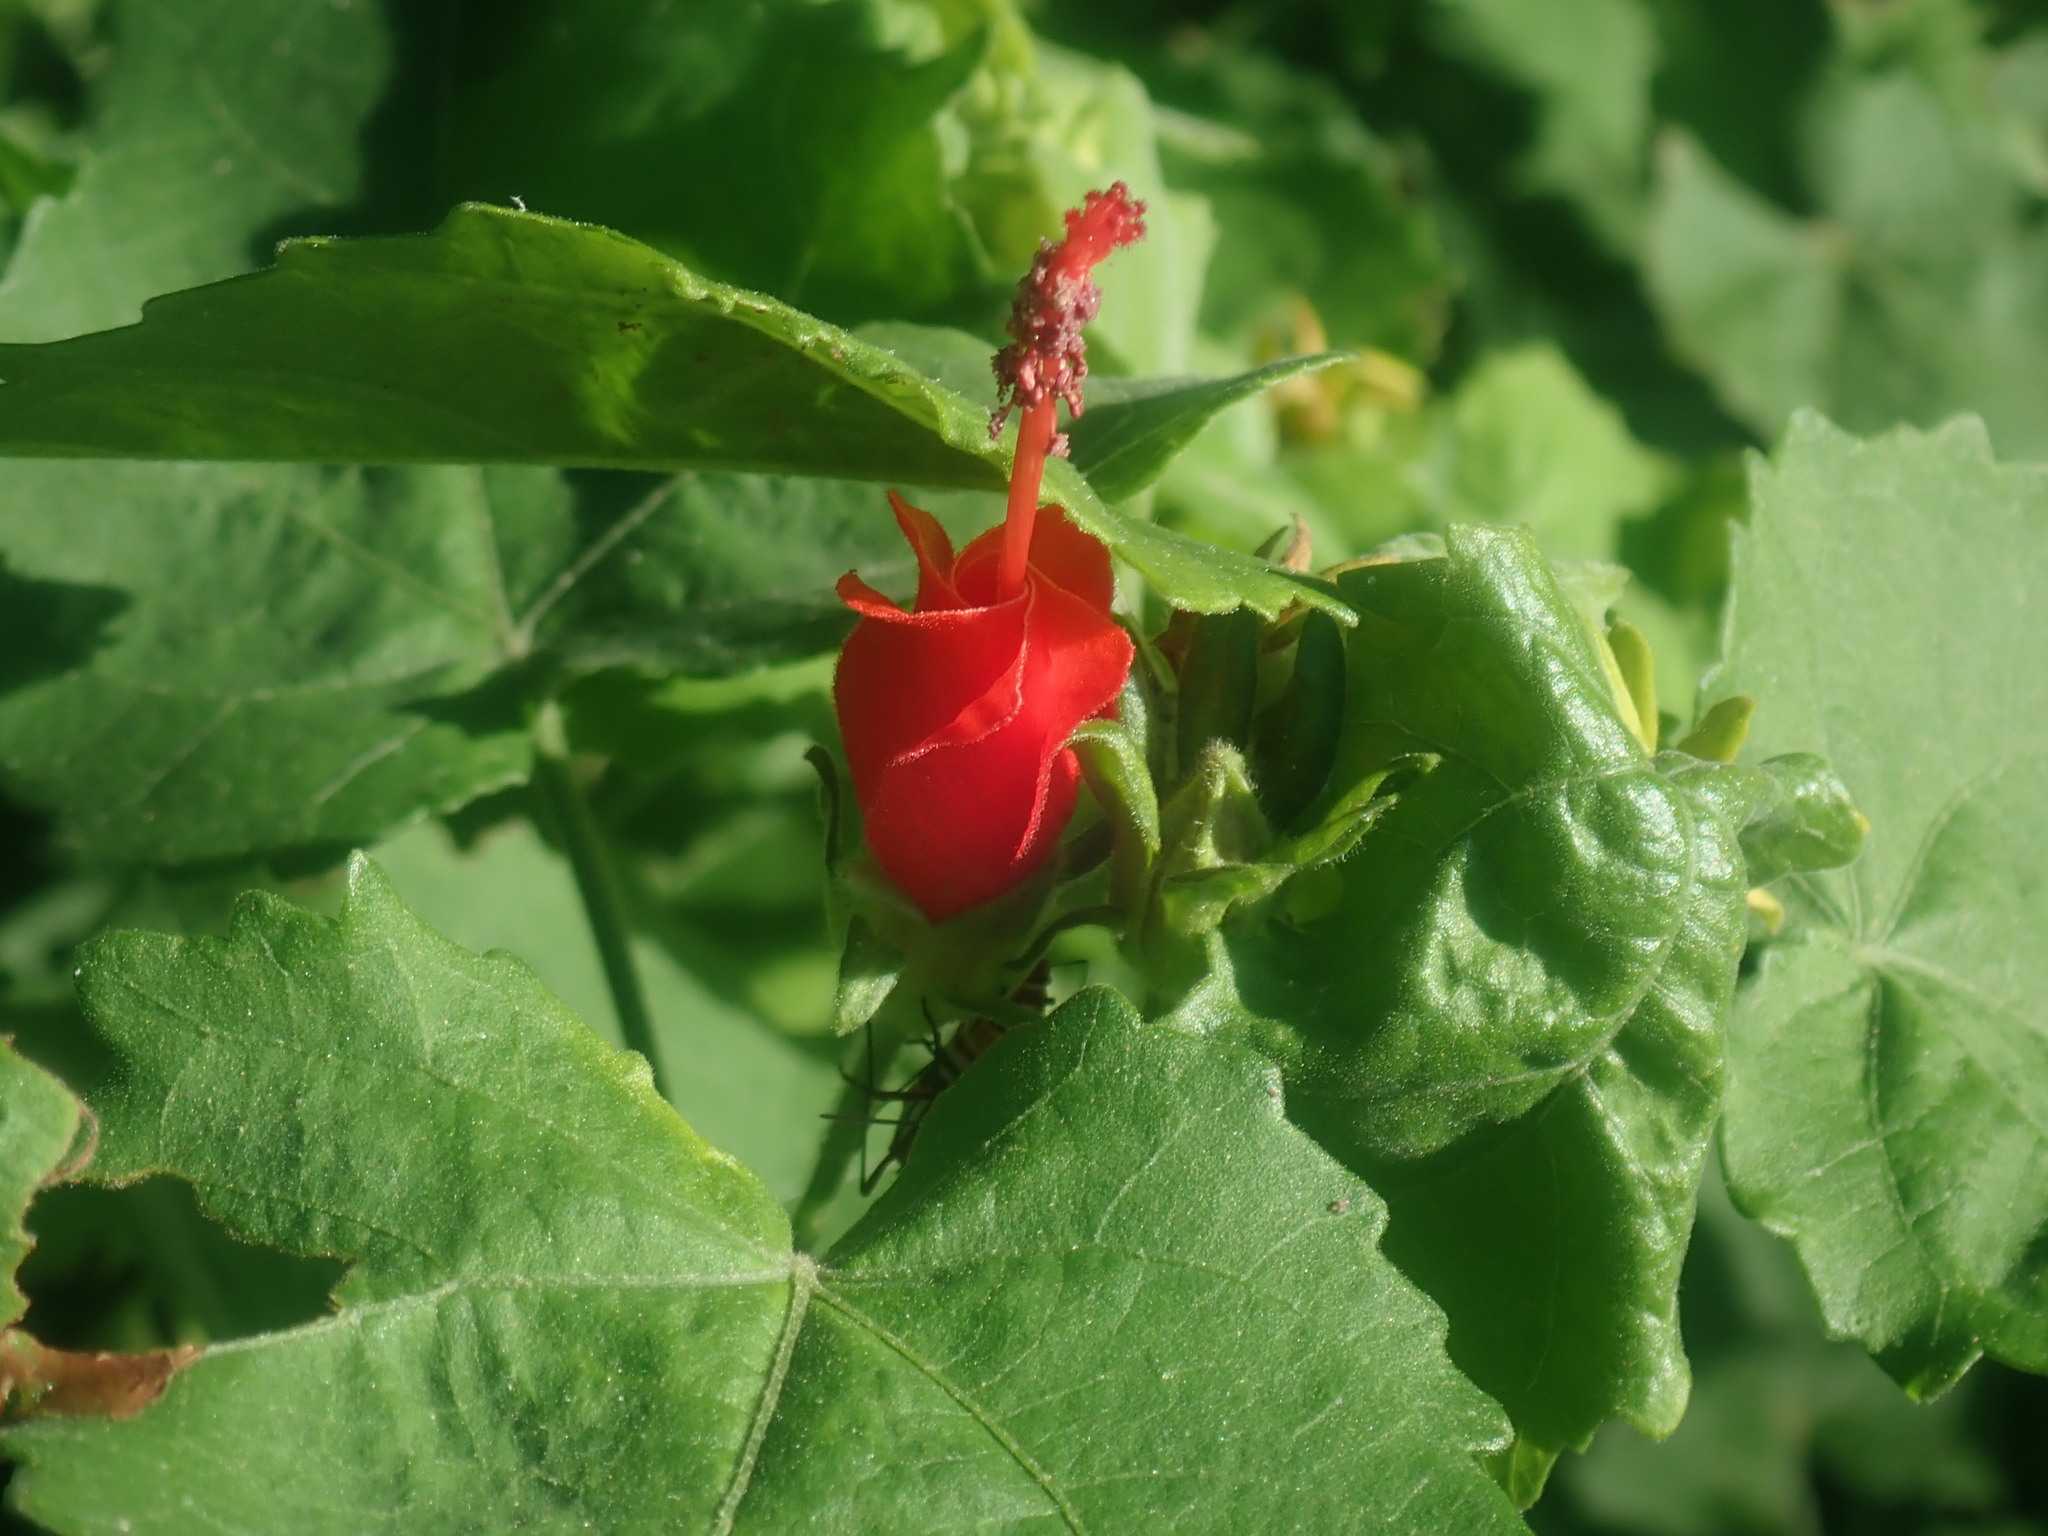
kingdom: Plantae
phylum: Tracheophyta
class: Magnoliopsida
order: Malvales
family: Malvaceae
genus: Malvaviscus
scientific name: Malvaviscus arboreus
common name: Wax mallow
